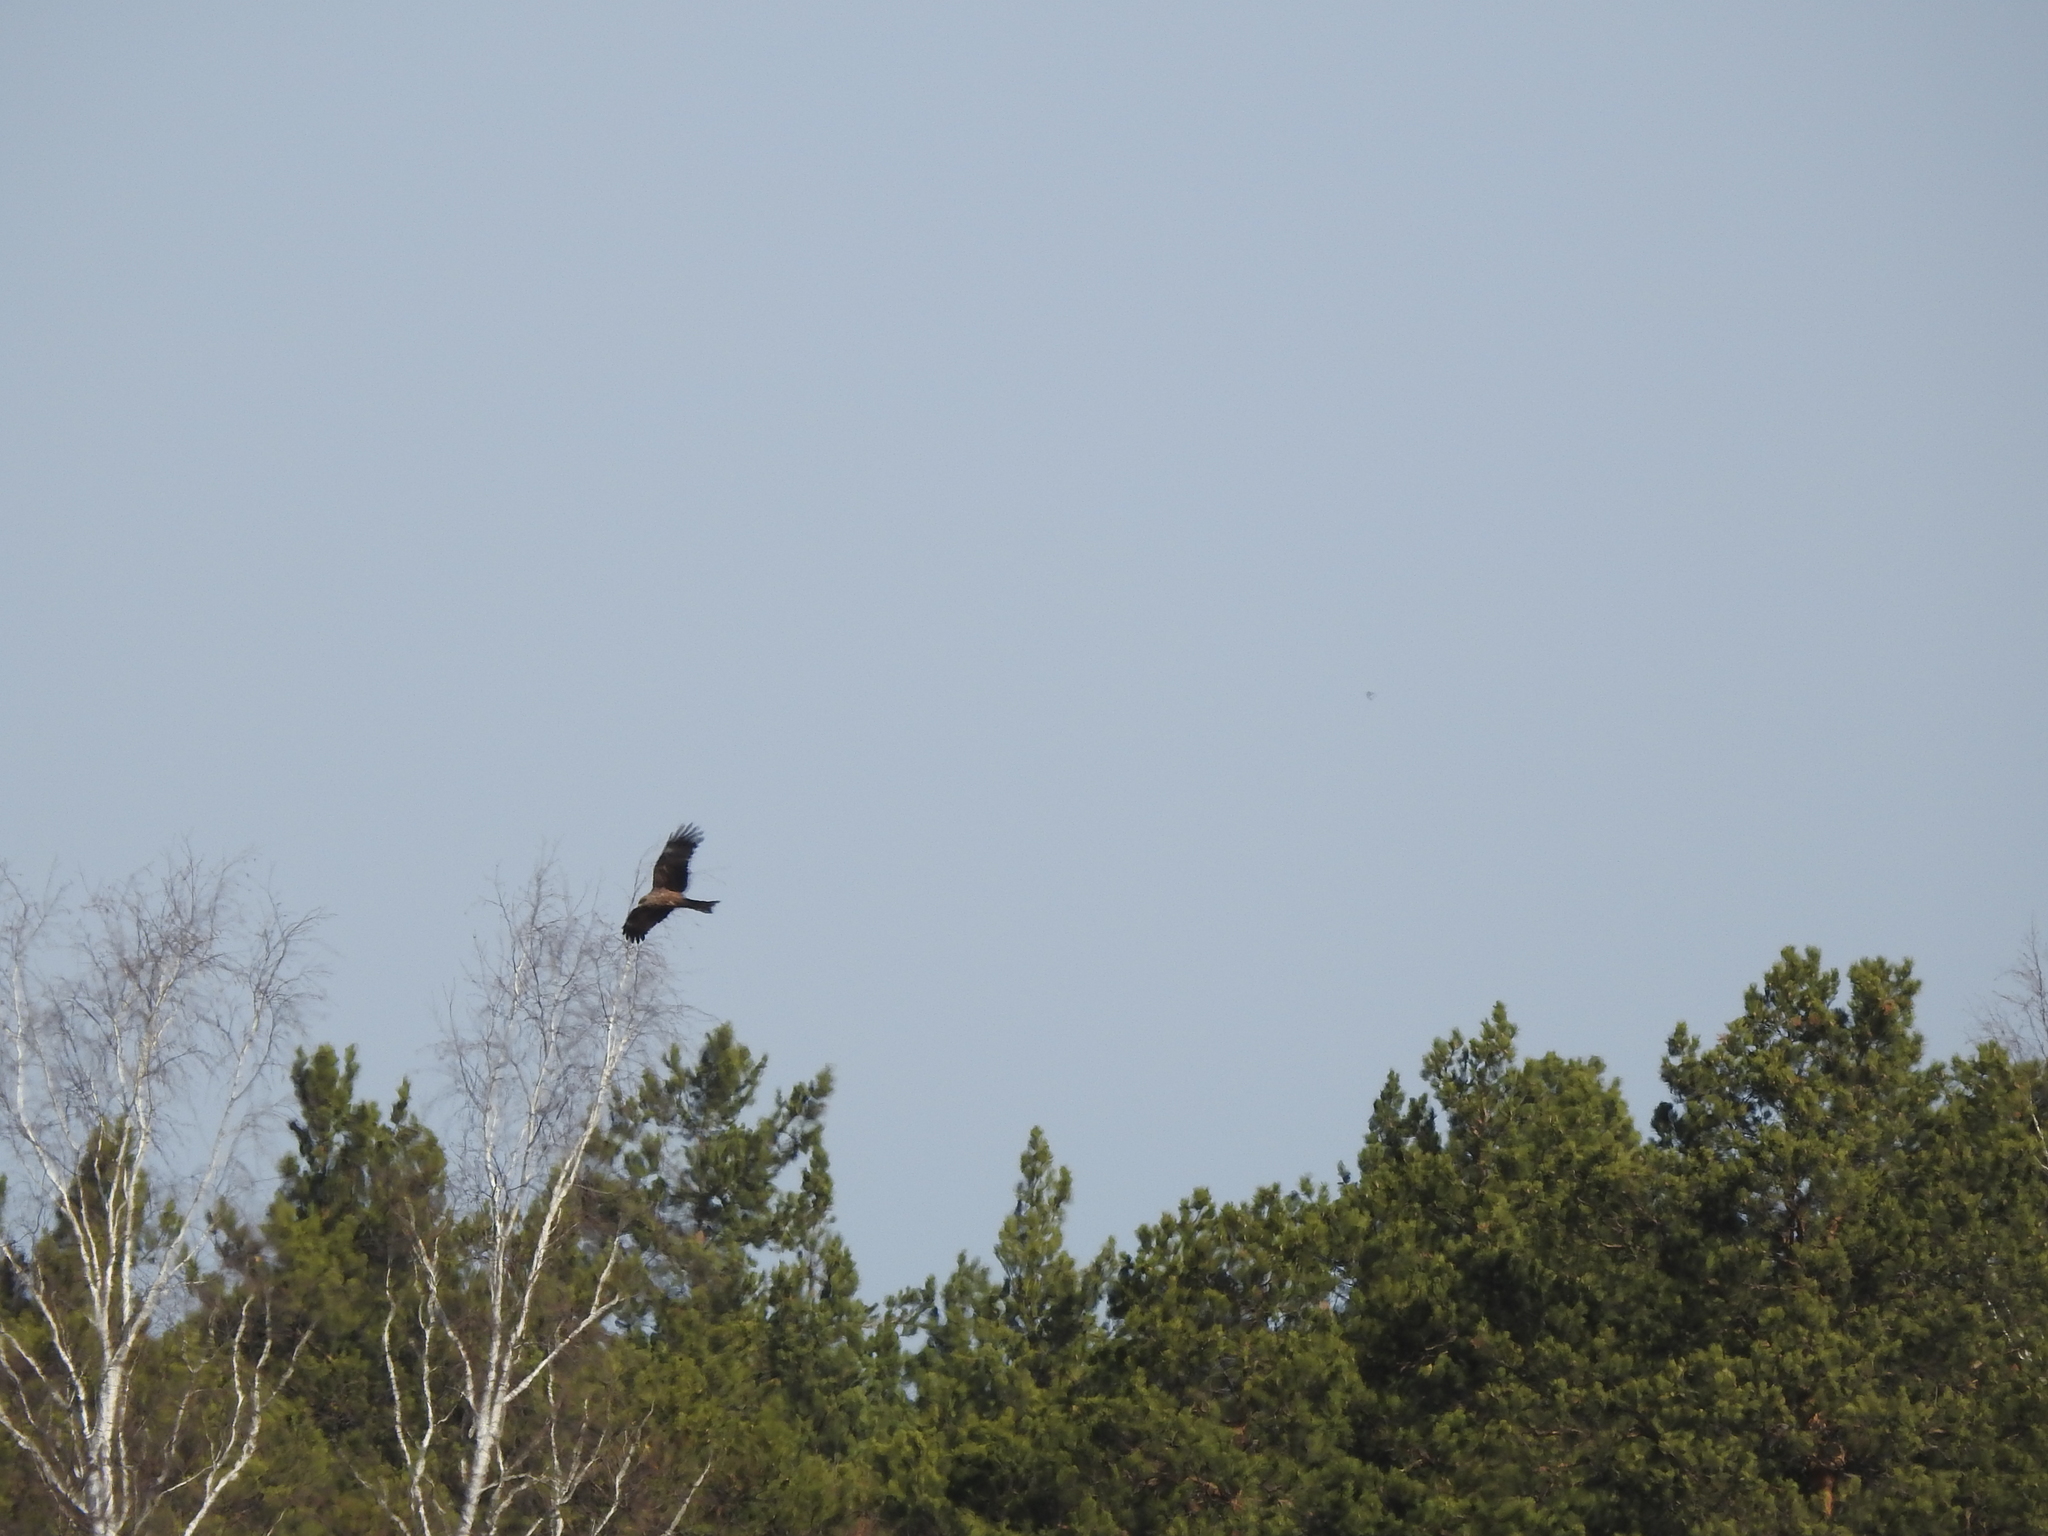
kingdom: Animalia
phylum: Chordata
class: Aves
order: Accipitriformes
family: Accipitridae
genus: Milvus
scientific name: Milvus migrans
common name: Black kite
